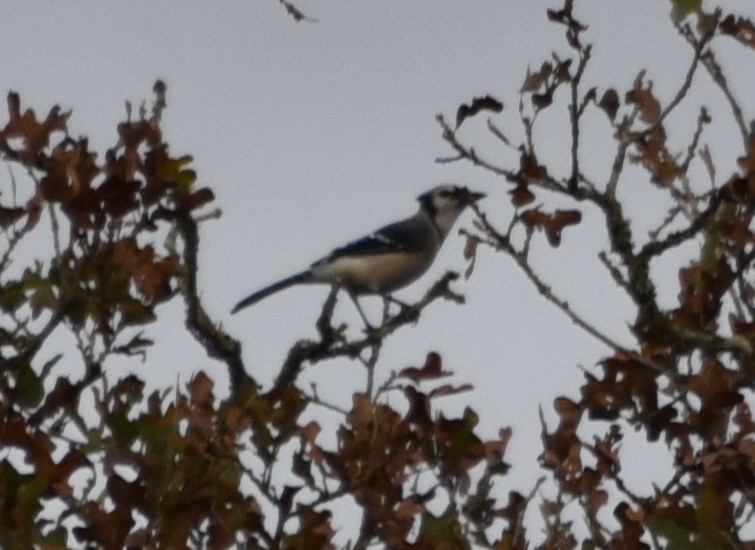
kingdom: Animalia
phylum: Chordata
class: Aves
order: Passeriformes
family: Corvidae
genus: Cyanocitta
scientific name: Cyanocitta cristata
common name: Blue jay
